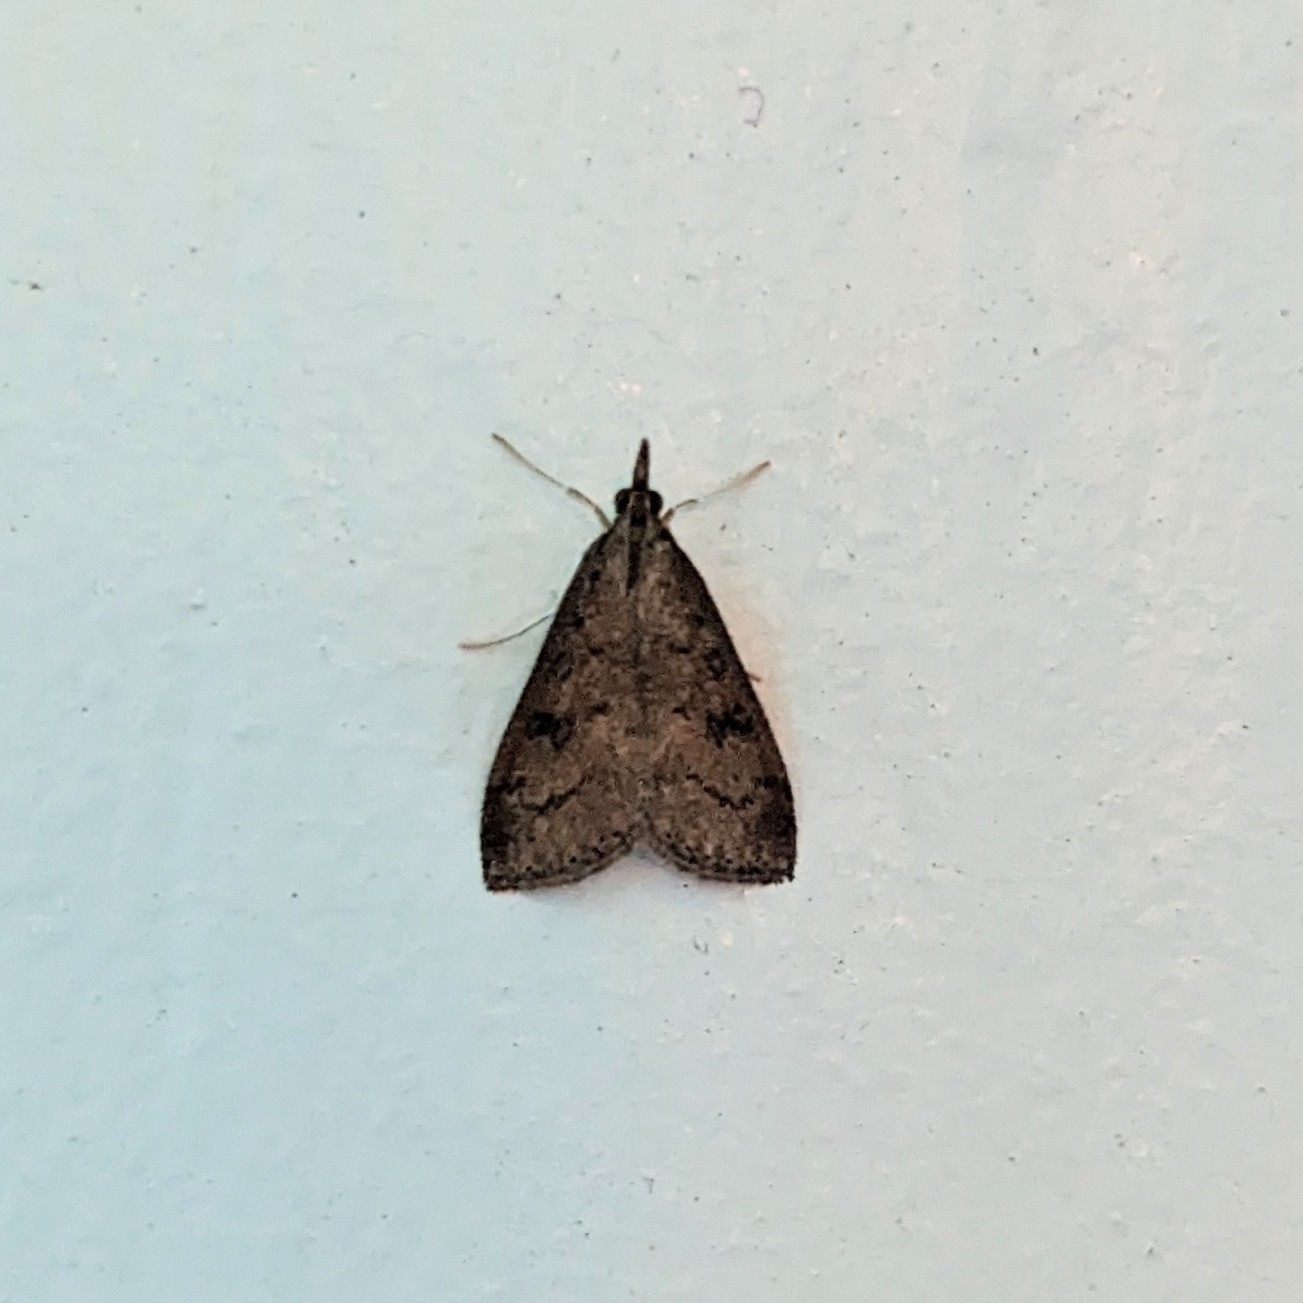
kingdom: Animalia
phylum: Arthropoda
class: Insecta
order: Lepidoptera
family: Crambidae
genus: Udea
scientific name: Udea rubigalis
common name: Celery leaftier moth
